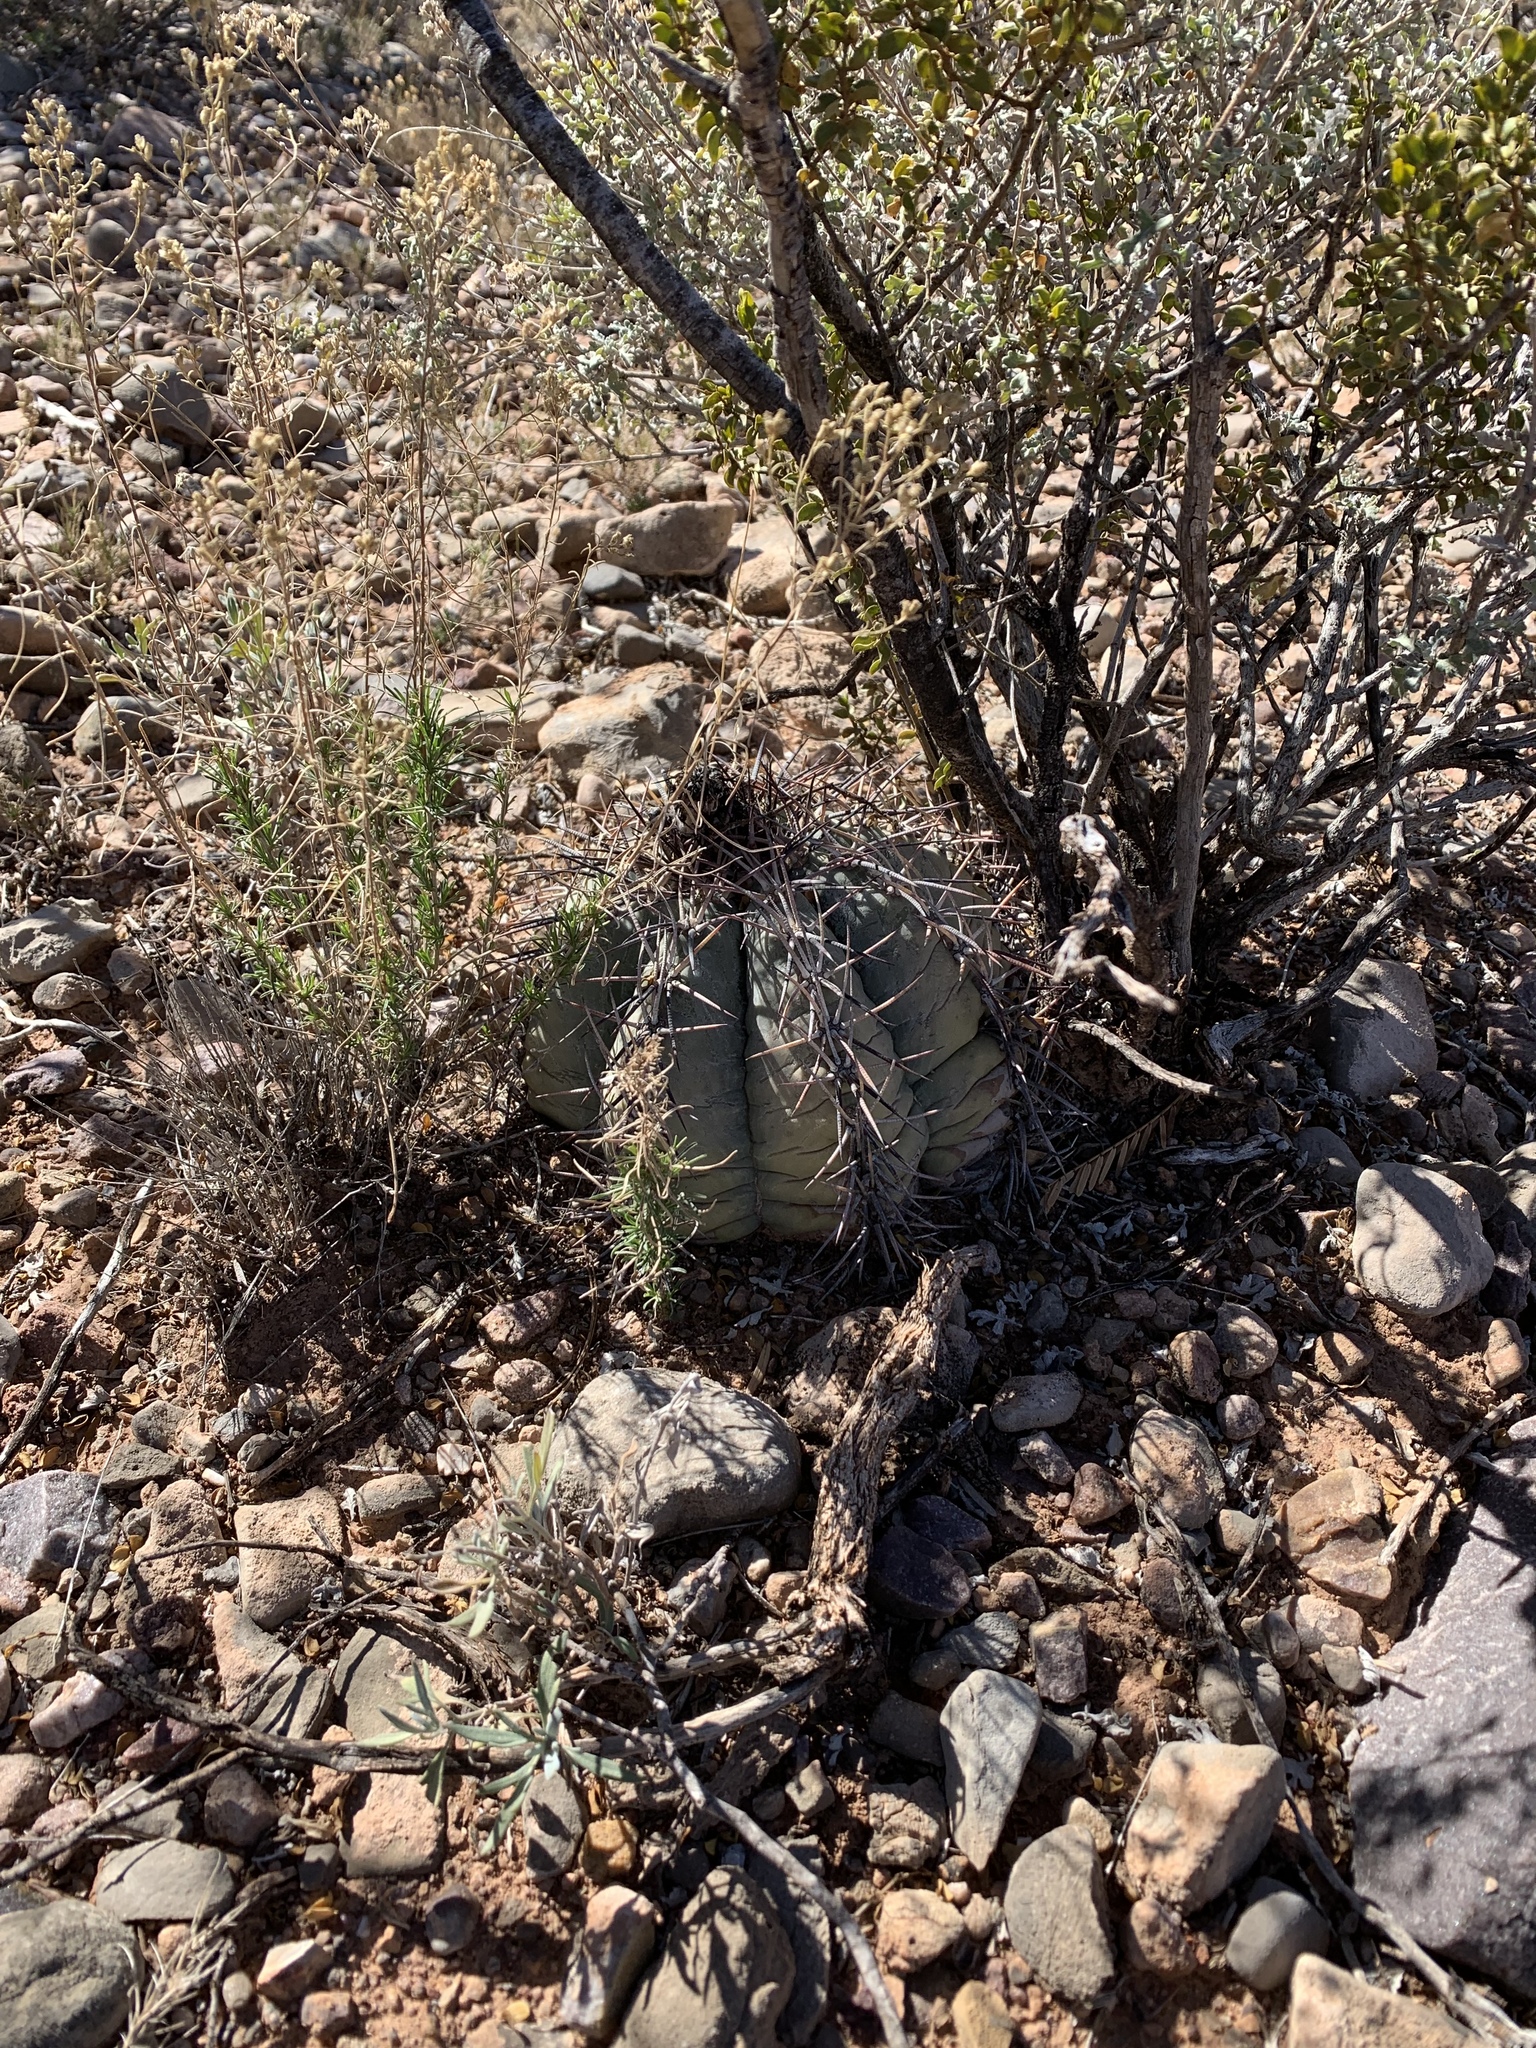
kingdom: Plantae
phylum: Tracheophyta
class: Magnoliopsida
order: Caryophyllales
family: Cactaceae
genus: Echinocactus
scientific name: Echinocactus horizonthalonius
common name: Devilshead
